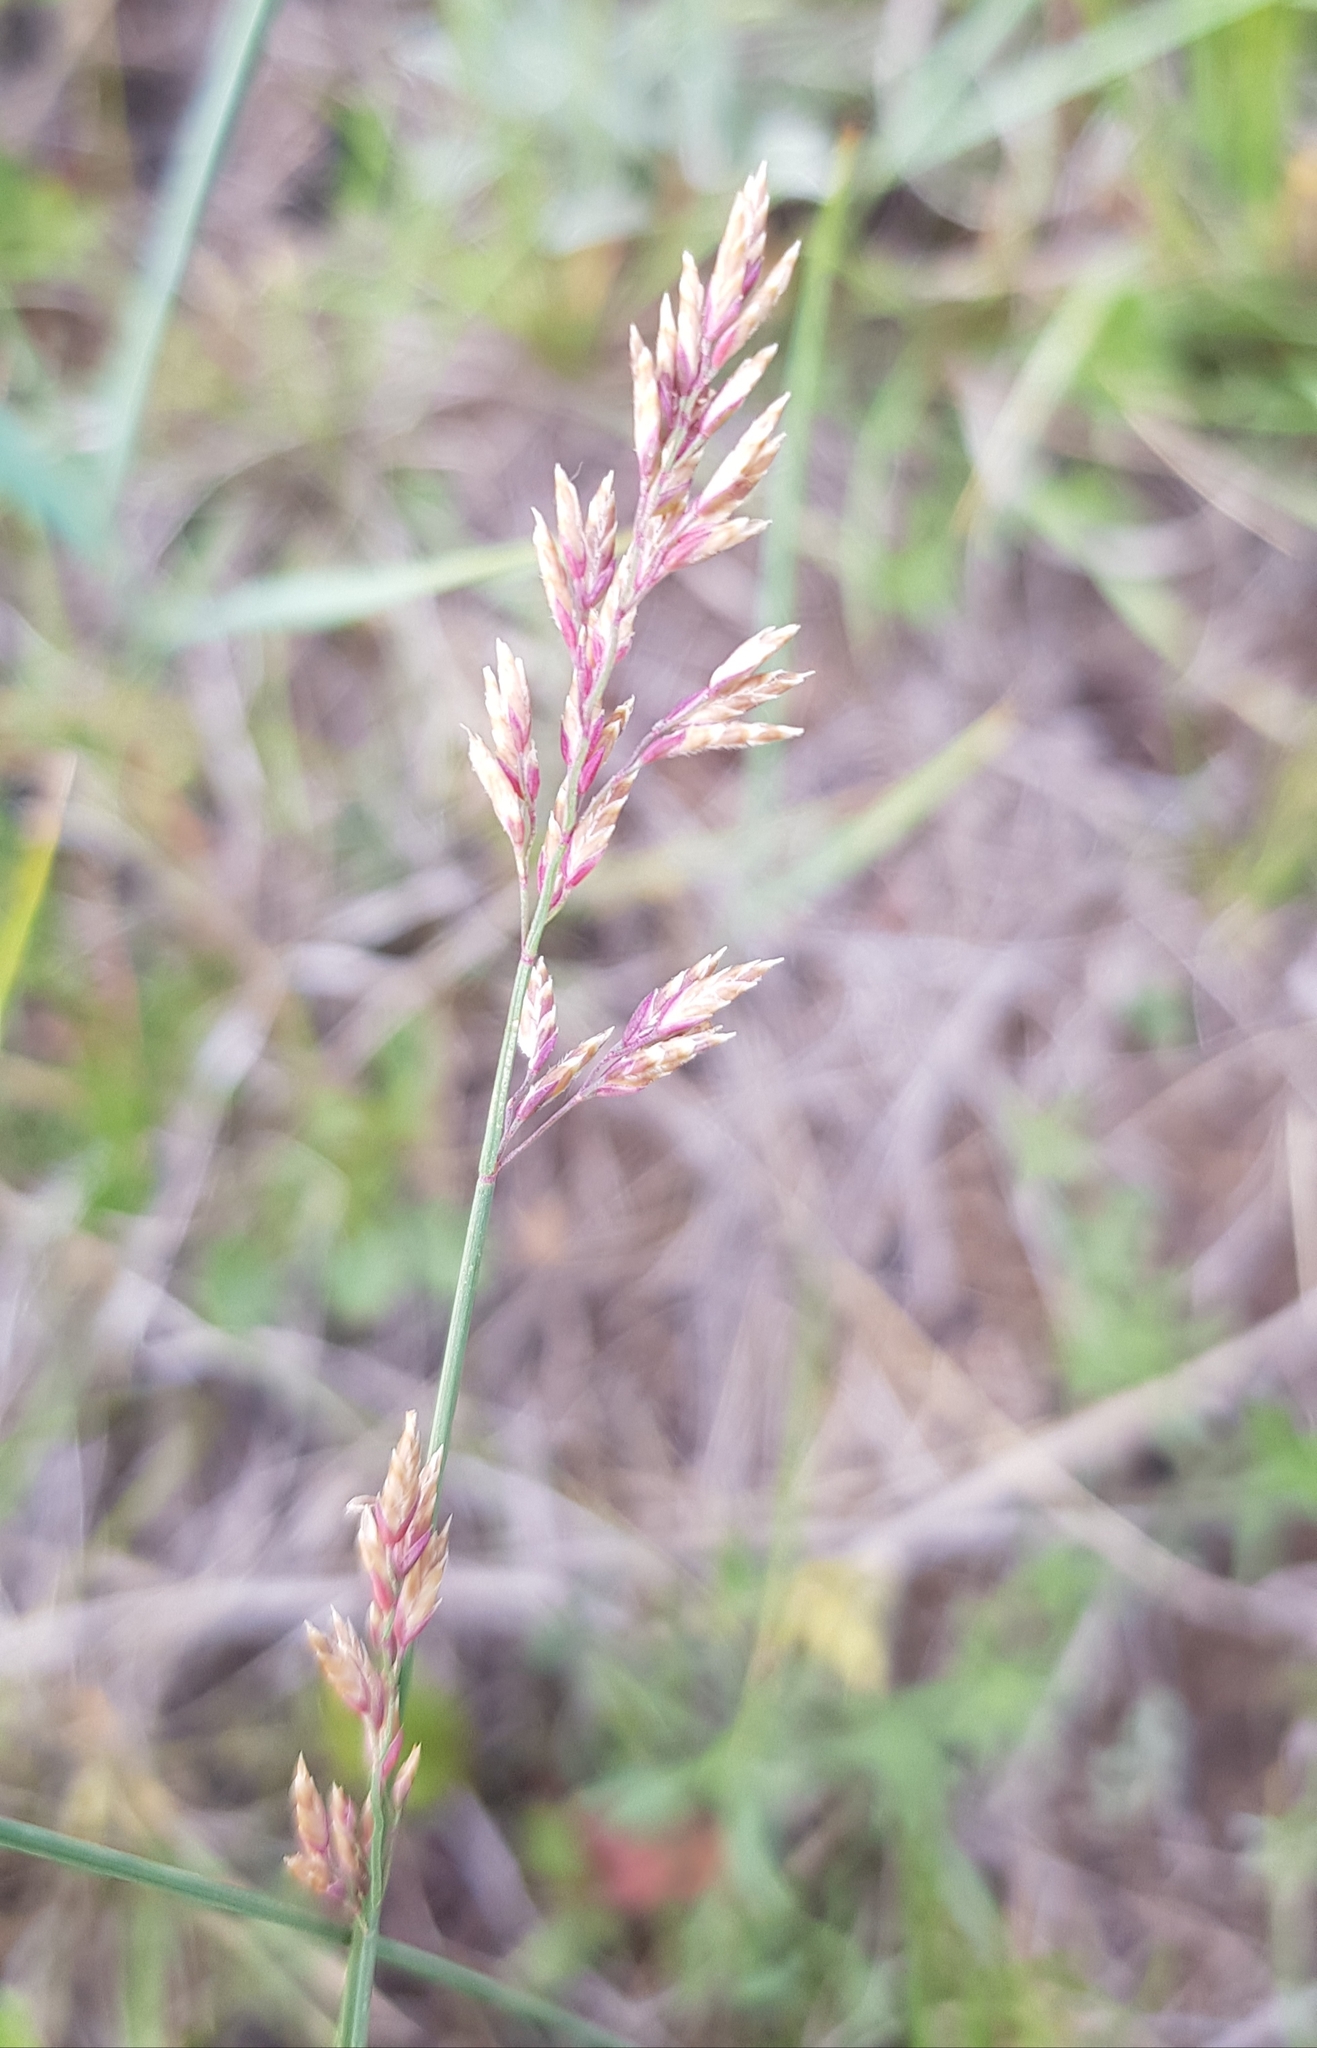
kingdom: Plantae
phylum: Tracheophyta
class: Liliopsida
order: Poales
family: Poaceae
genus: Agrostis
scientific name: Agrostis gigantea
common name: Black bent
